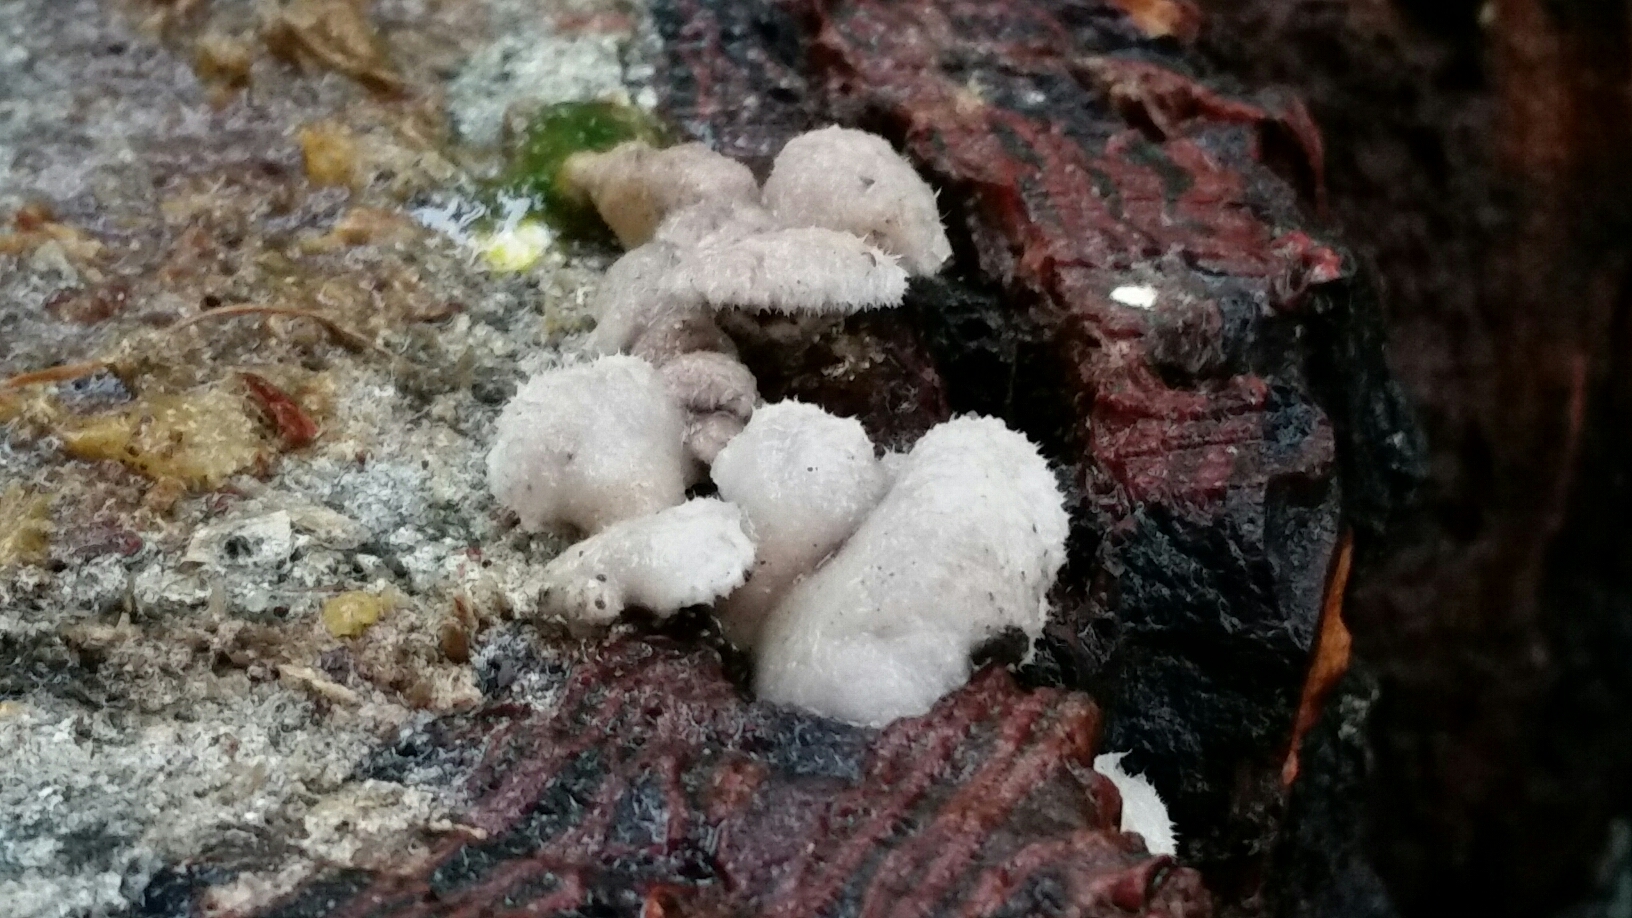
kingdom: Fungi
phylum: Basidiomycota
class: Agaricomycetes
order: Agaricales
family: Schizophyllaceae
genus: Schizophyllum
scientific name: Schizophyllum commune
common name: Common porecrust
